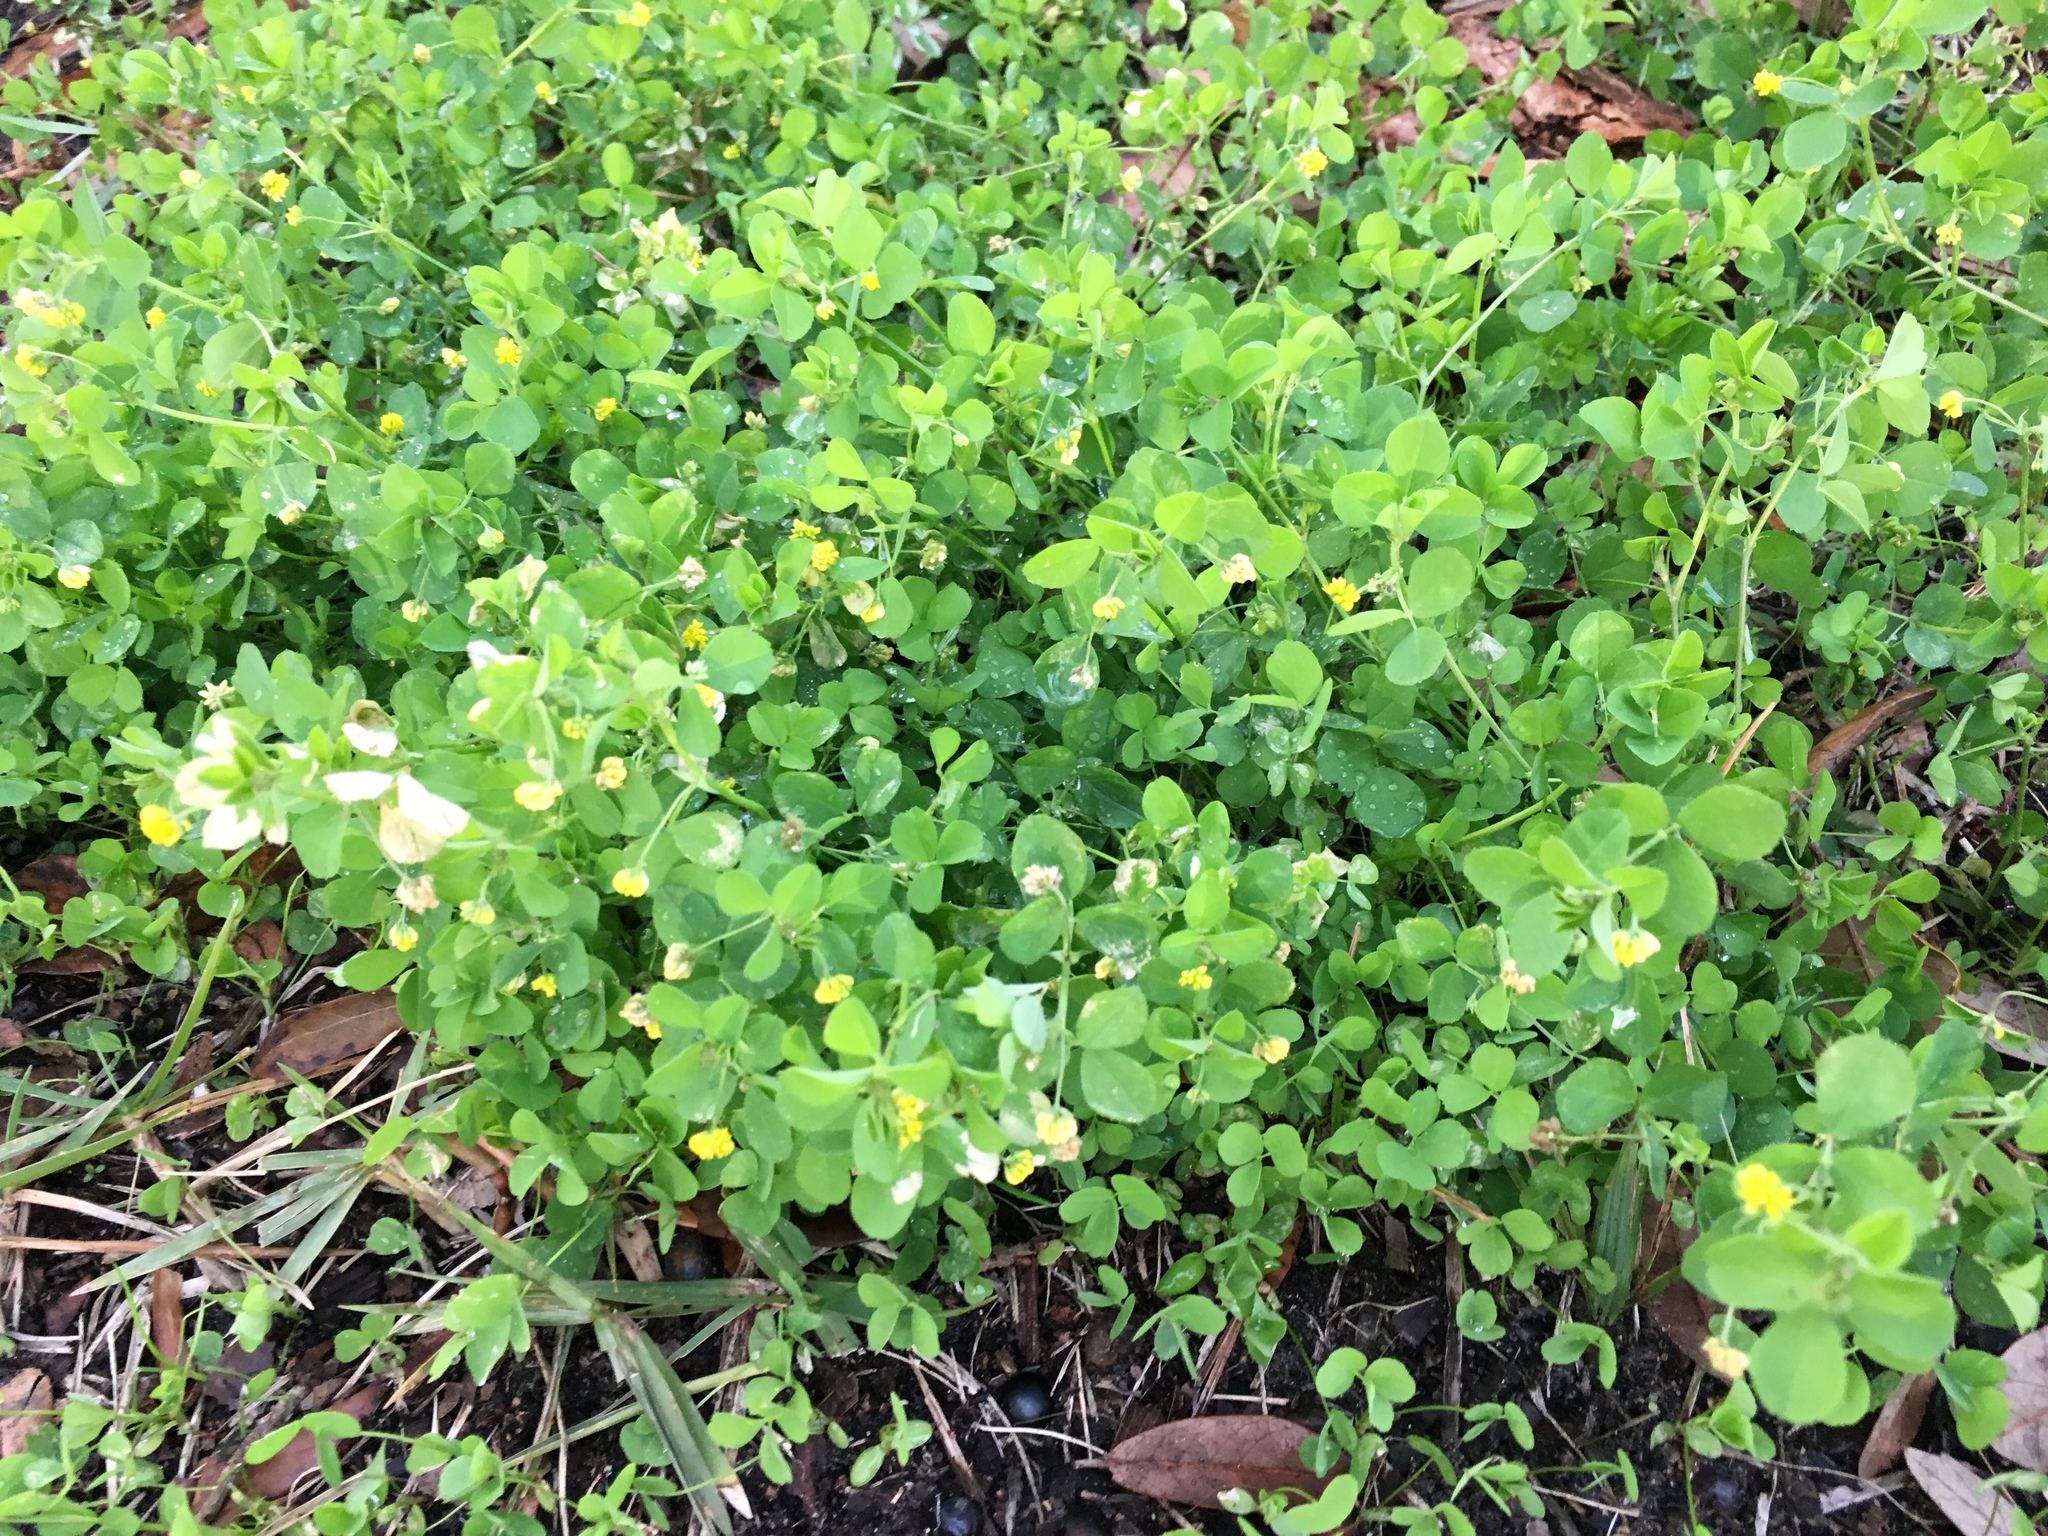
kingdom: Plantae
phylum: Tracheophyta
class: Magnoliopsida
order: Fabales
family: Fabaceae
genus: Medicago
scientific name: Medicago lupulina
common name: Black medick
